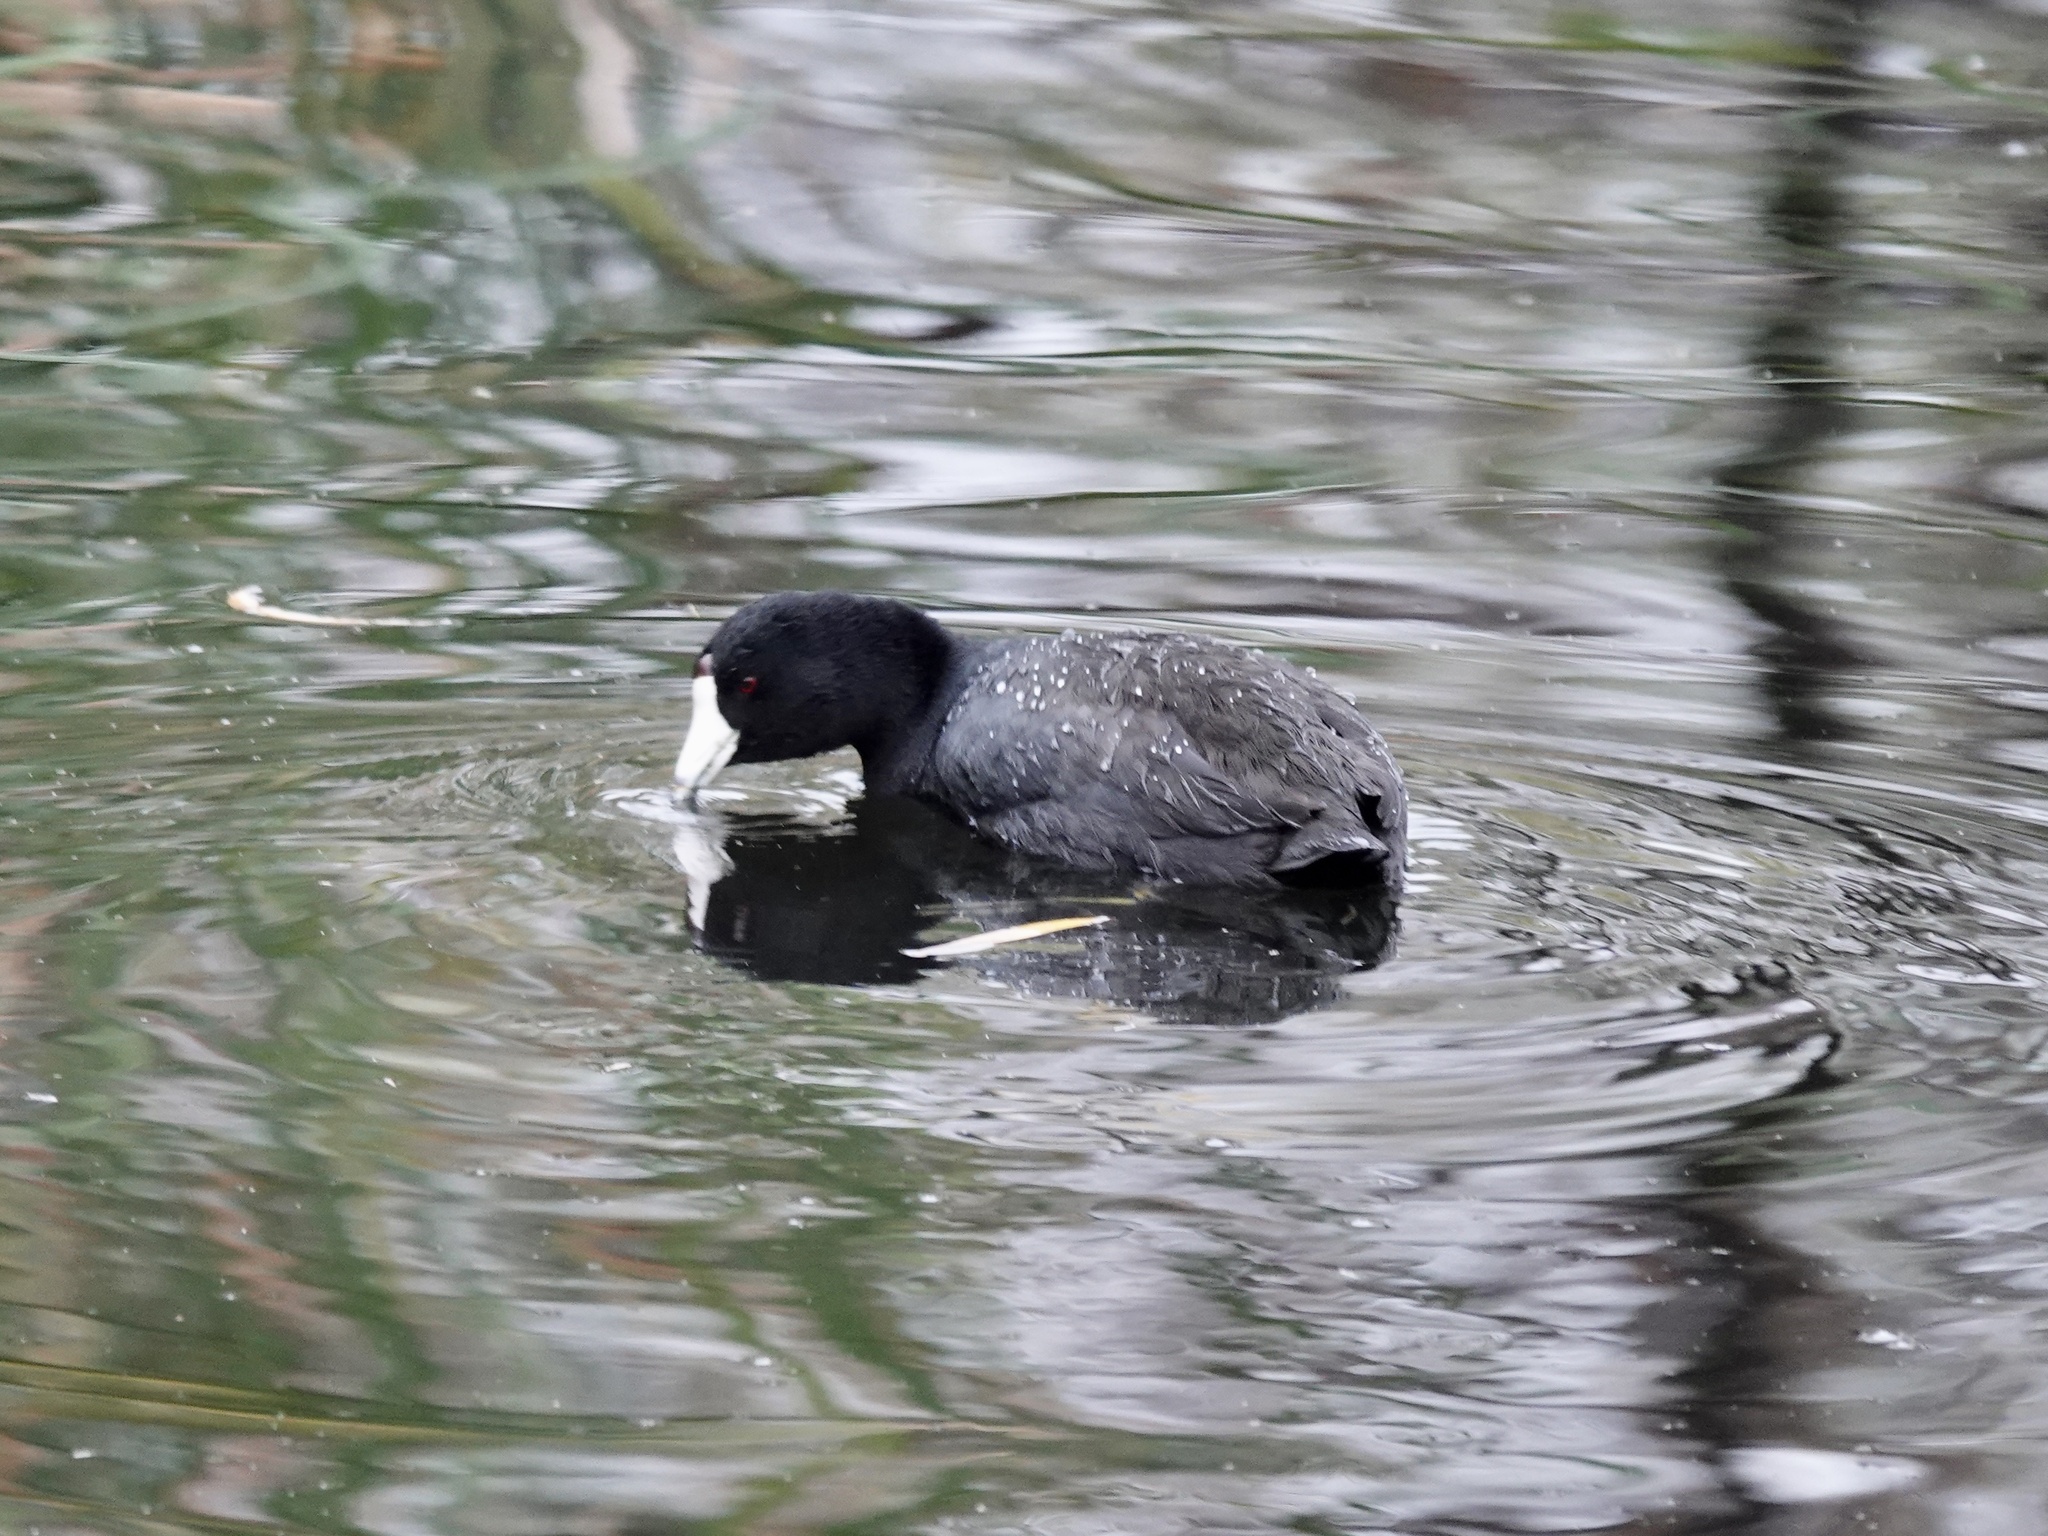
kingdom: Animalia
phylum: Chordata
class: Aves
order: Gruiformes
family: Rallidae
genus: Fulica
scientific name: Fulica americana
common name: American coot
